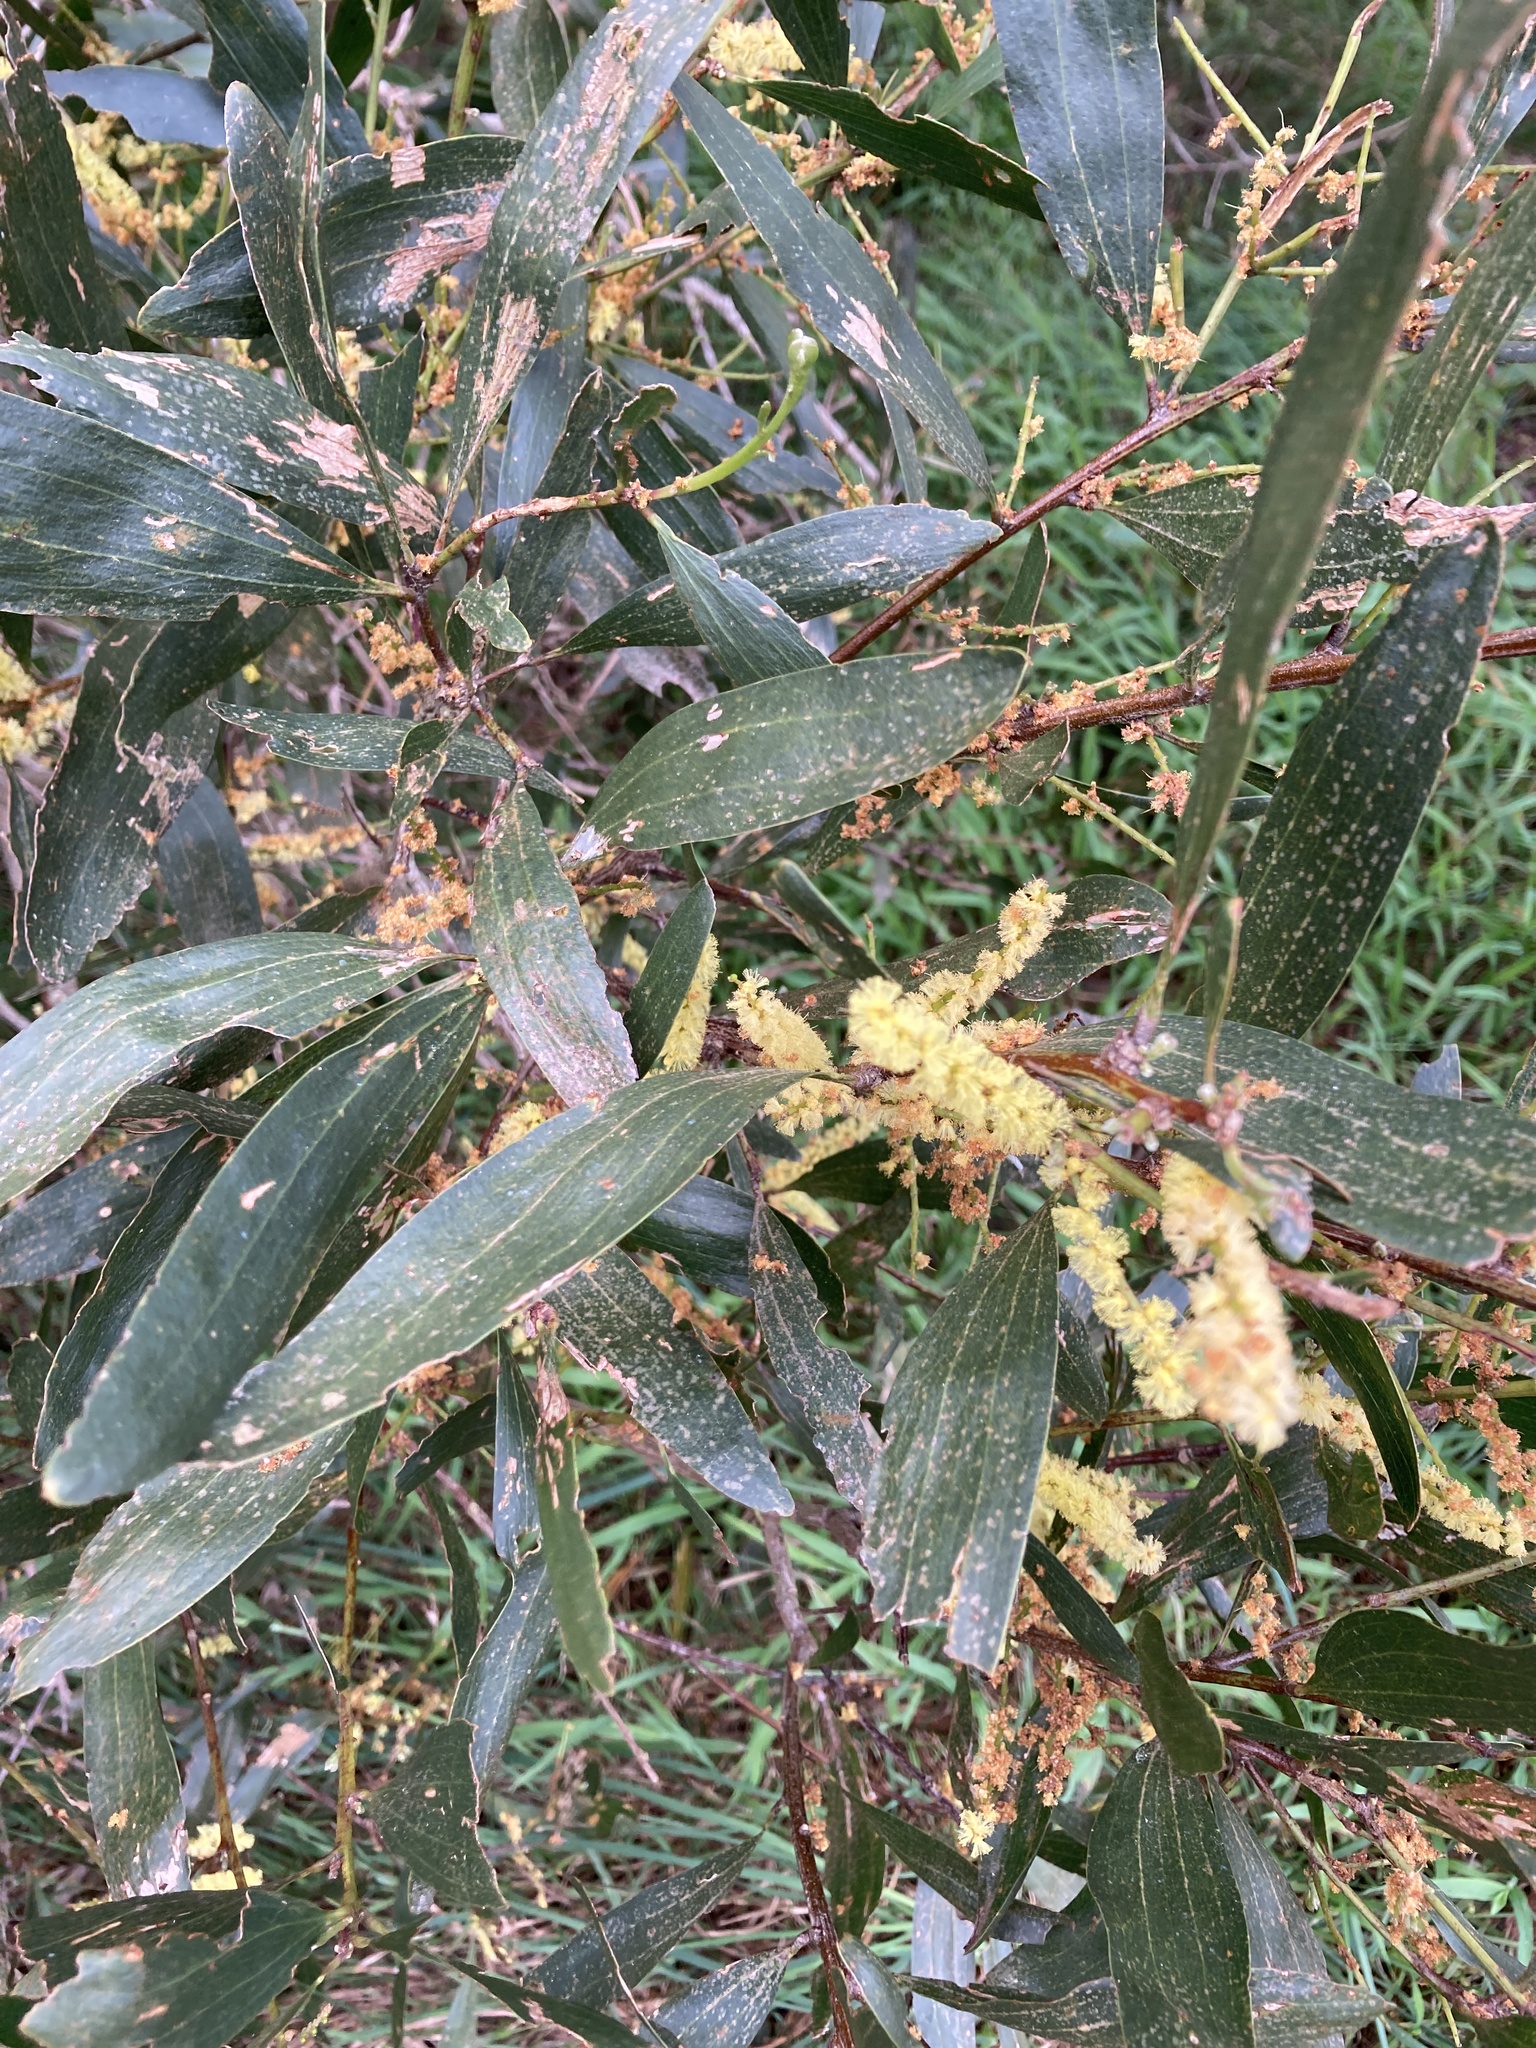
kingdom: Plantae
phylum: Tracheophyta
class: Magnoliopsida
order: Fabales
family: Fabaceae
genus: Acacia
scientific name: Acacia longifolia
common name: Sydney golden wattle
